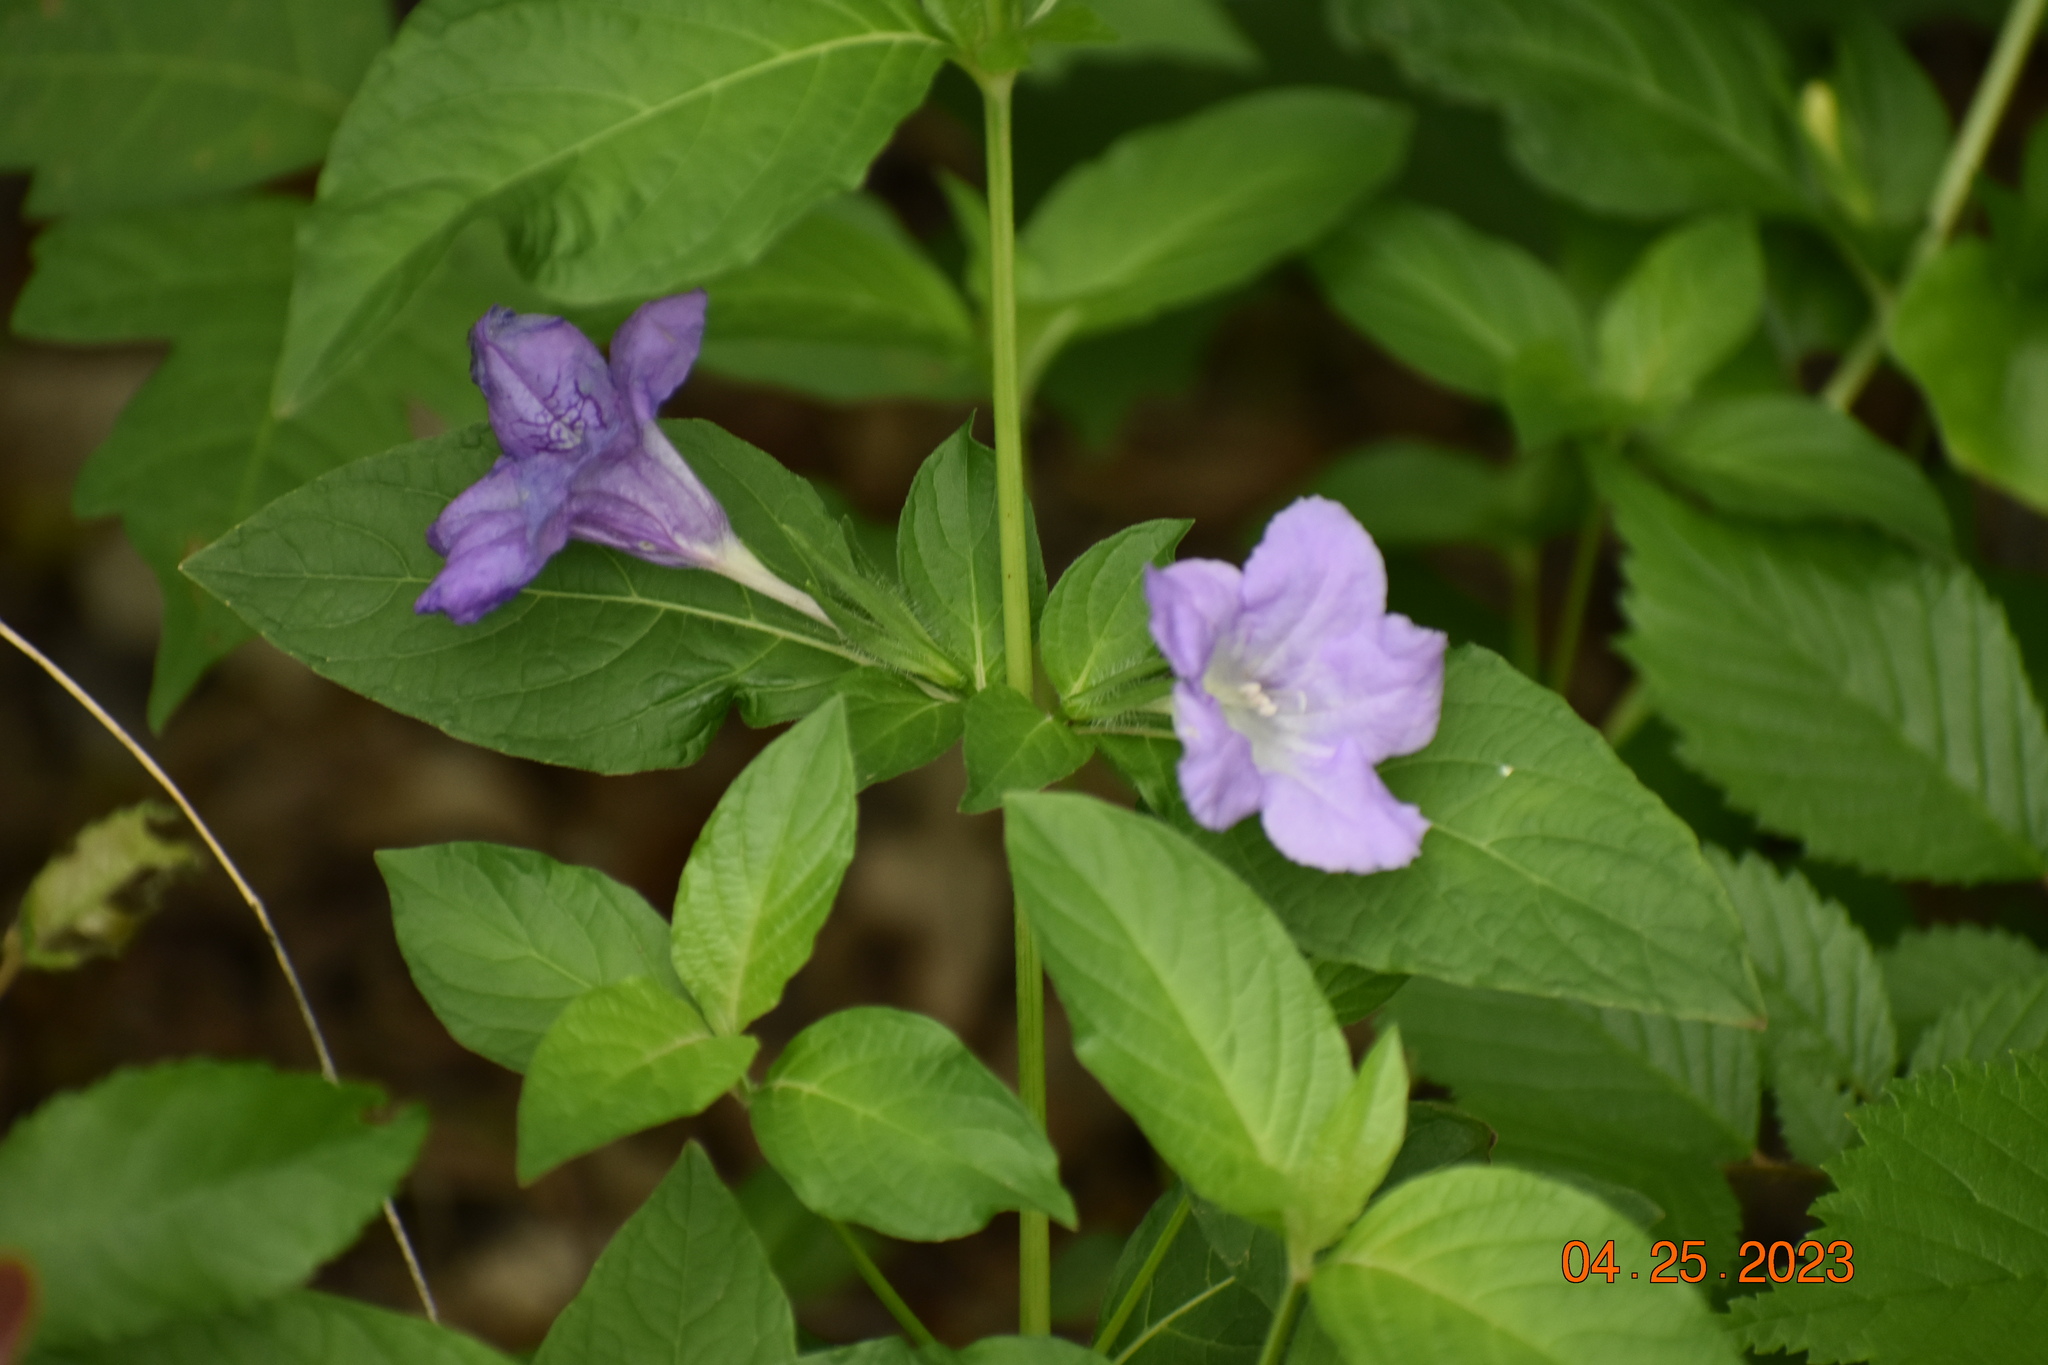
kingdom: Plantae
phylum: Tracheophyta
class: Magnoliopsida
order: Lamiales
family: Acanthaceae
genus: Ruellia
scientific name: Ruellia strepens
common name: Limestone wild petunia
